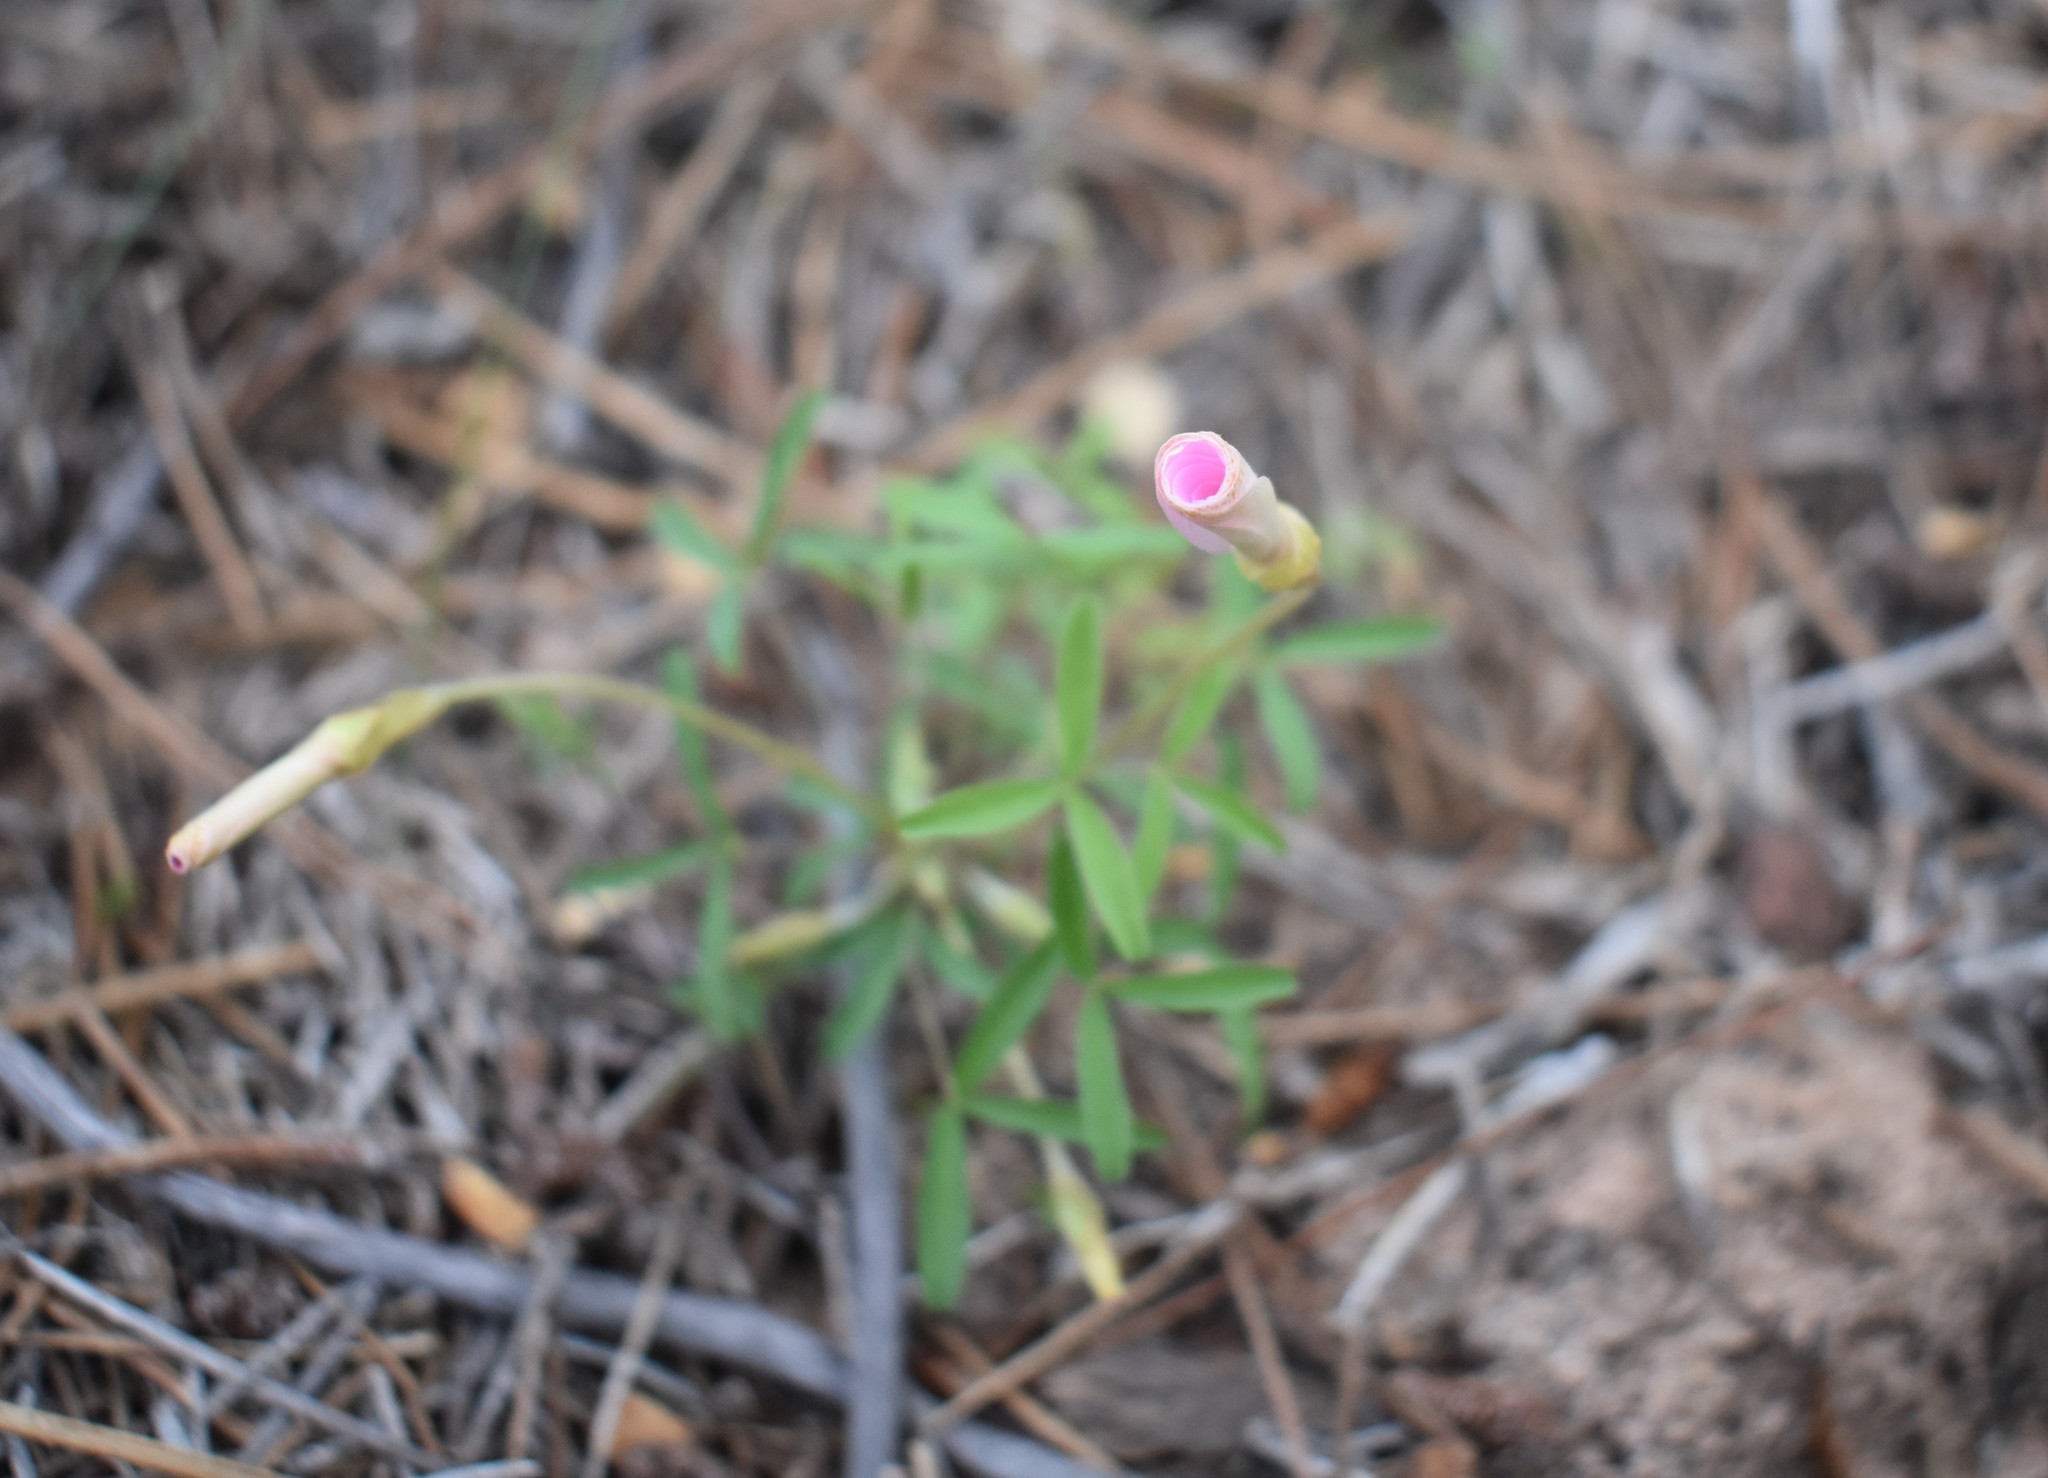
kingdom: Plantae
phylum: Tracheophyta
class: Magnoliopsida
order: Oxalidales
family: Oxalidaceae
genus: Oxalis
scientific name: Oxalis ciliaris
